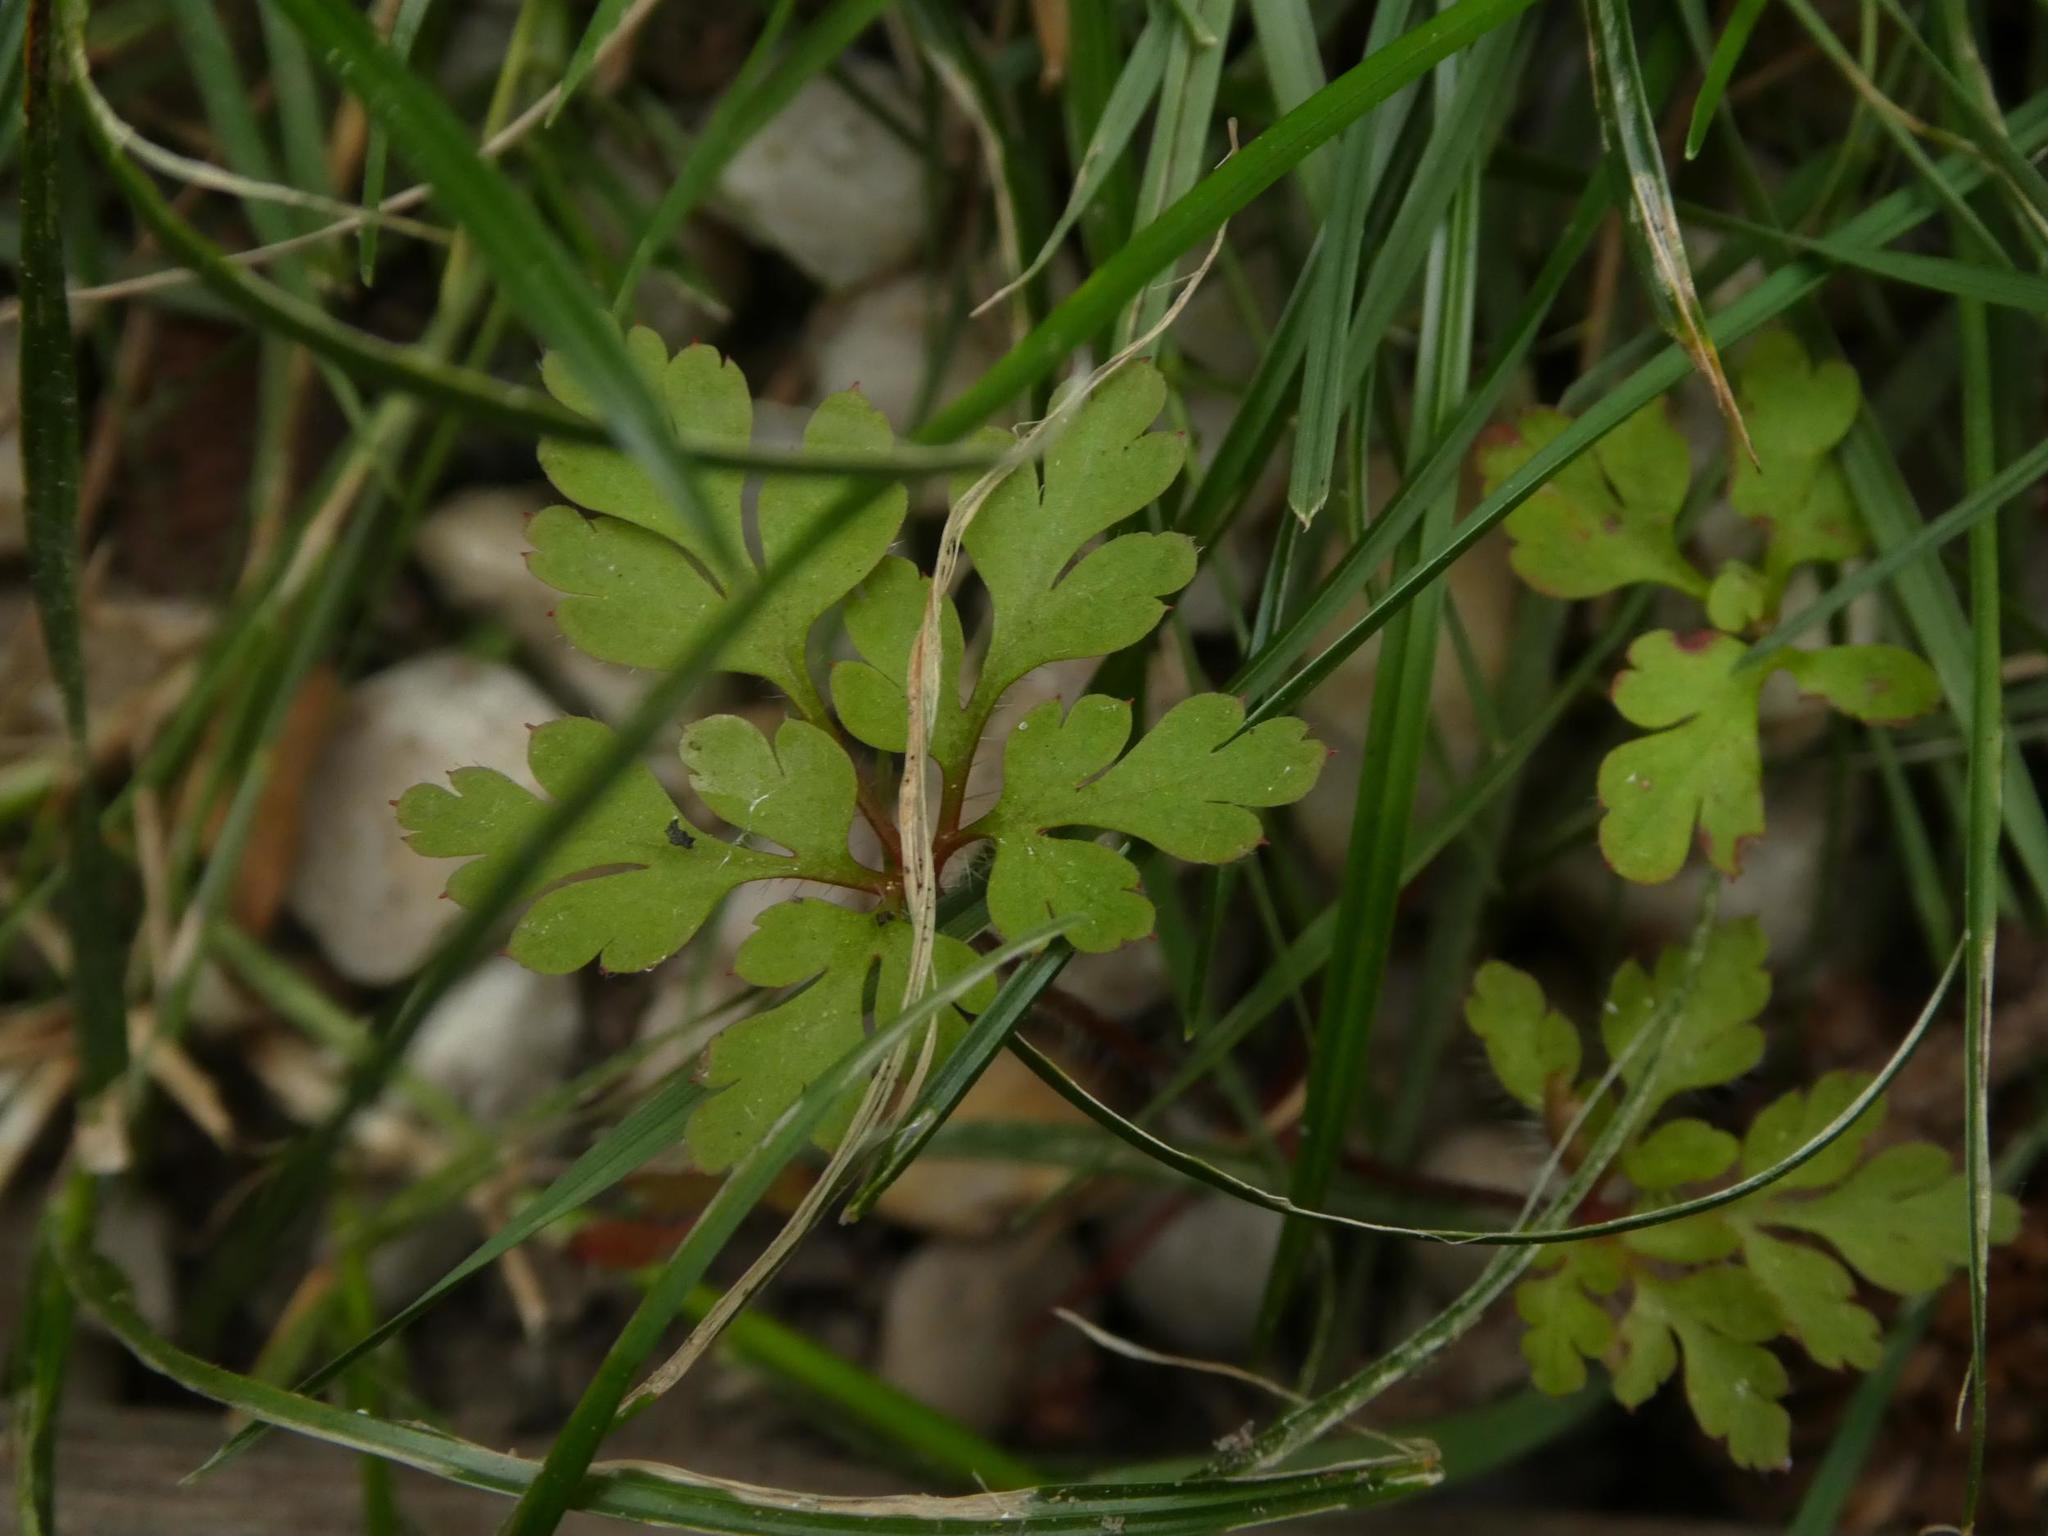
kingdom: Plantae
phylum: Tracheophyta
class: Magnoliopsida
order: Geraniales
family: Geraniaceae
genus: Geranium
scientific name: Geranium robertianum
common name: Herb-robert
